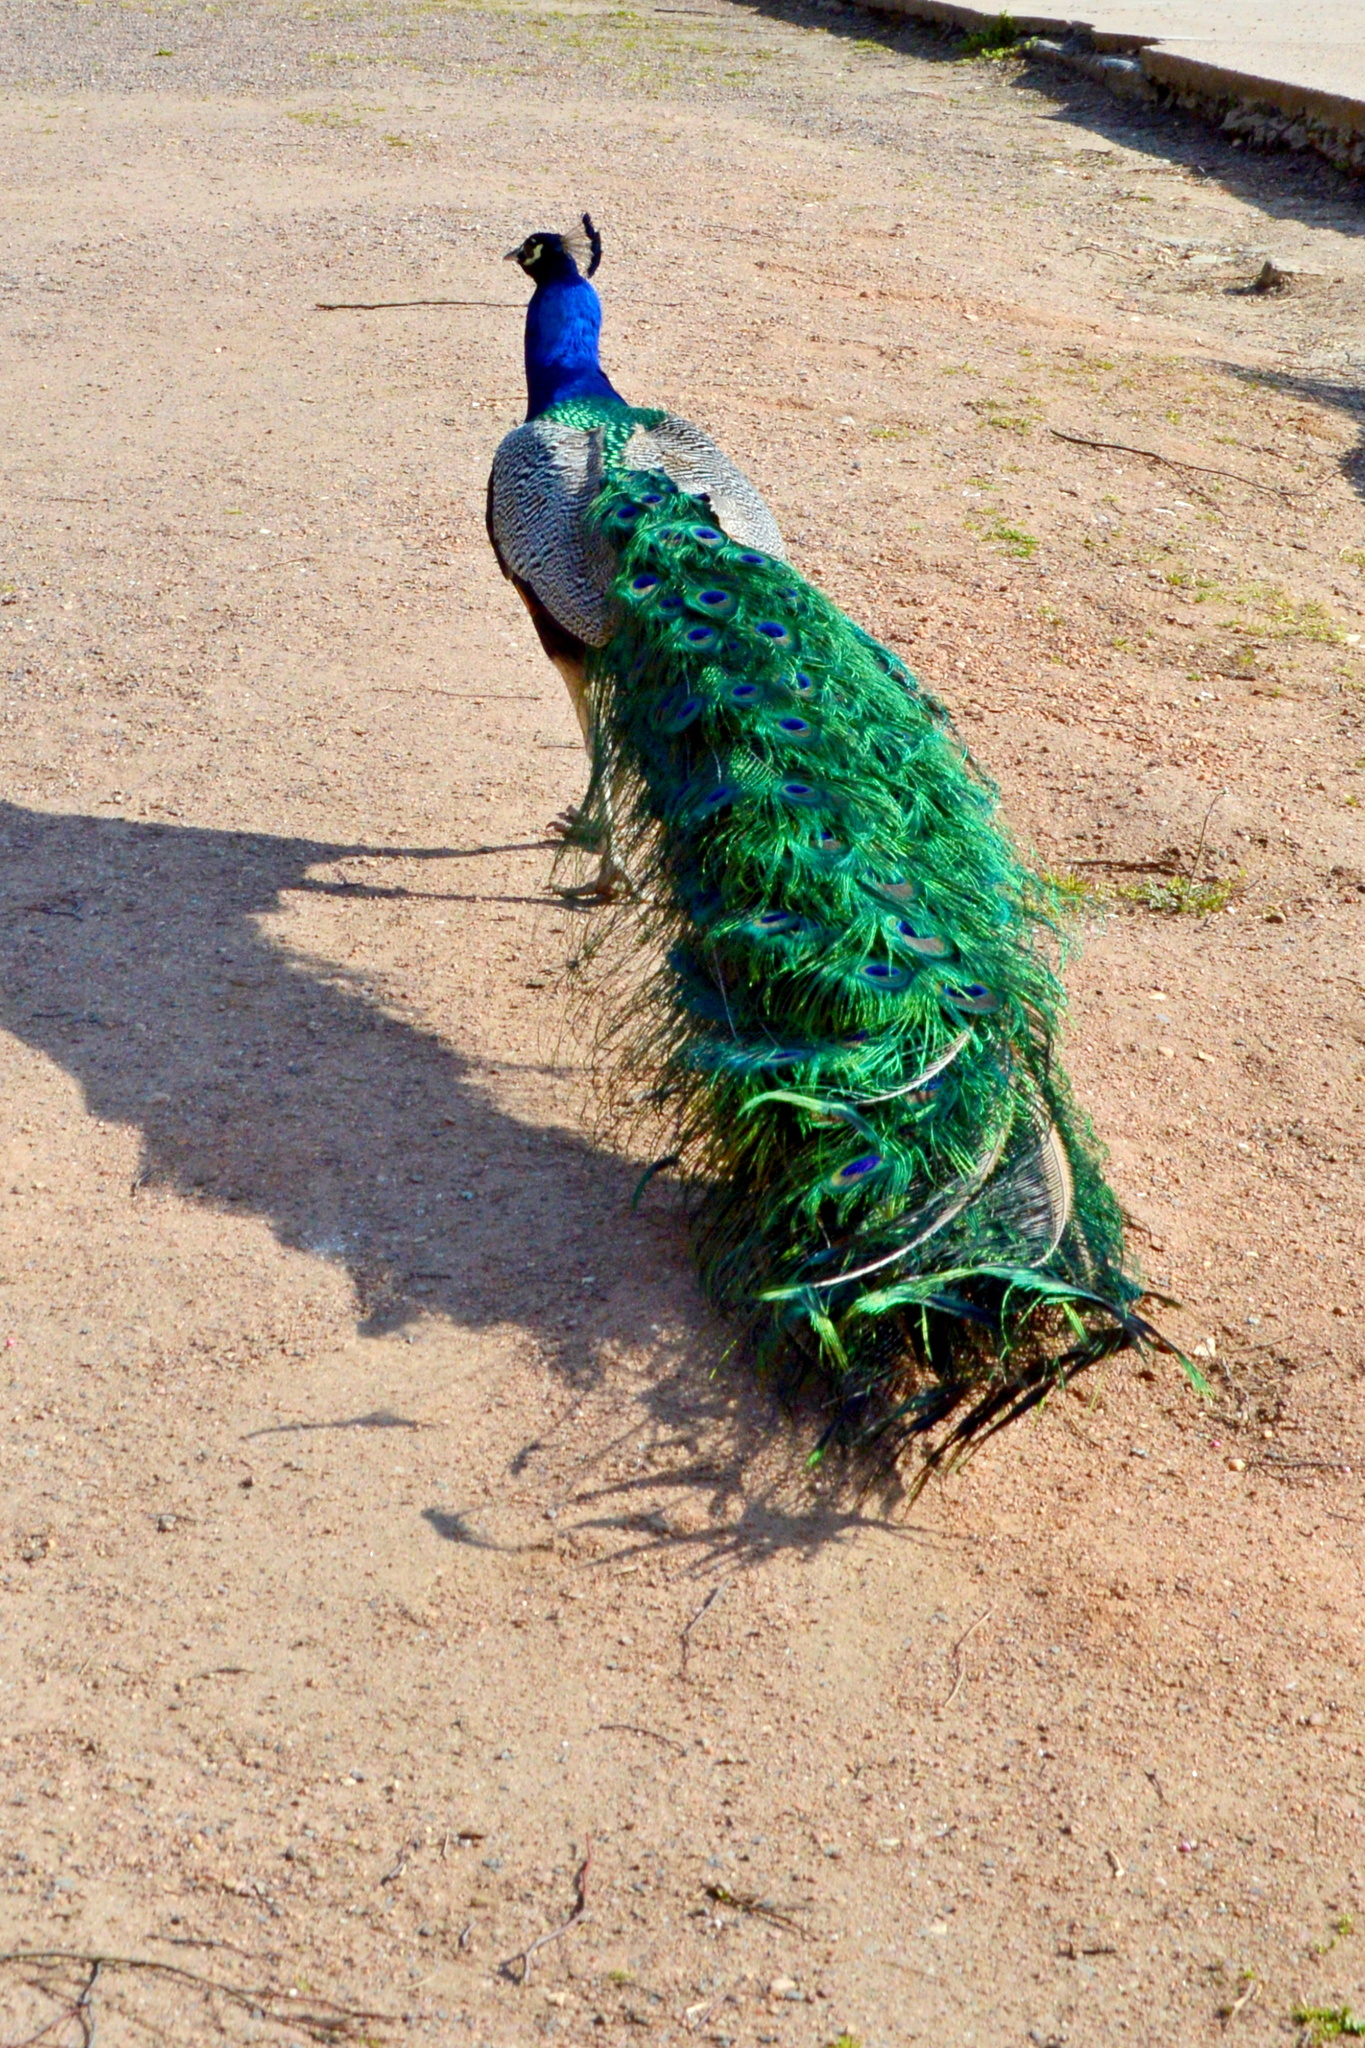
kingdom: Animalia
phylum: Chordata
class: Aves
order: Galliformes
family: Phasianidae
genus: Pavo
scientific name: Pavo cristatus
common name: Indian peafowl
